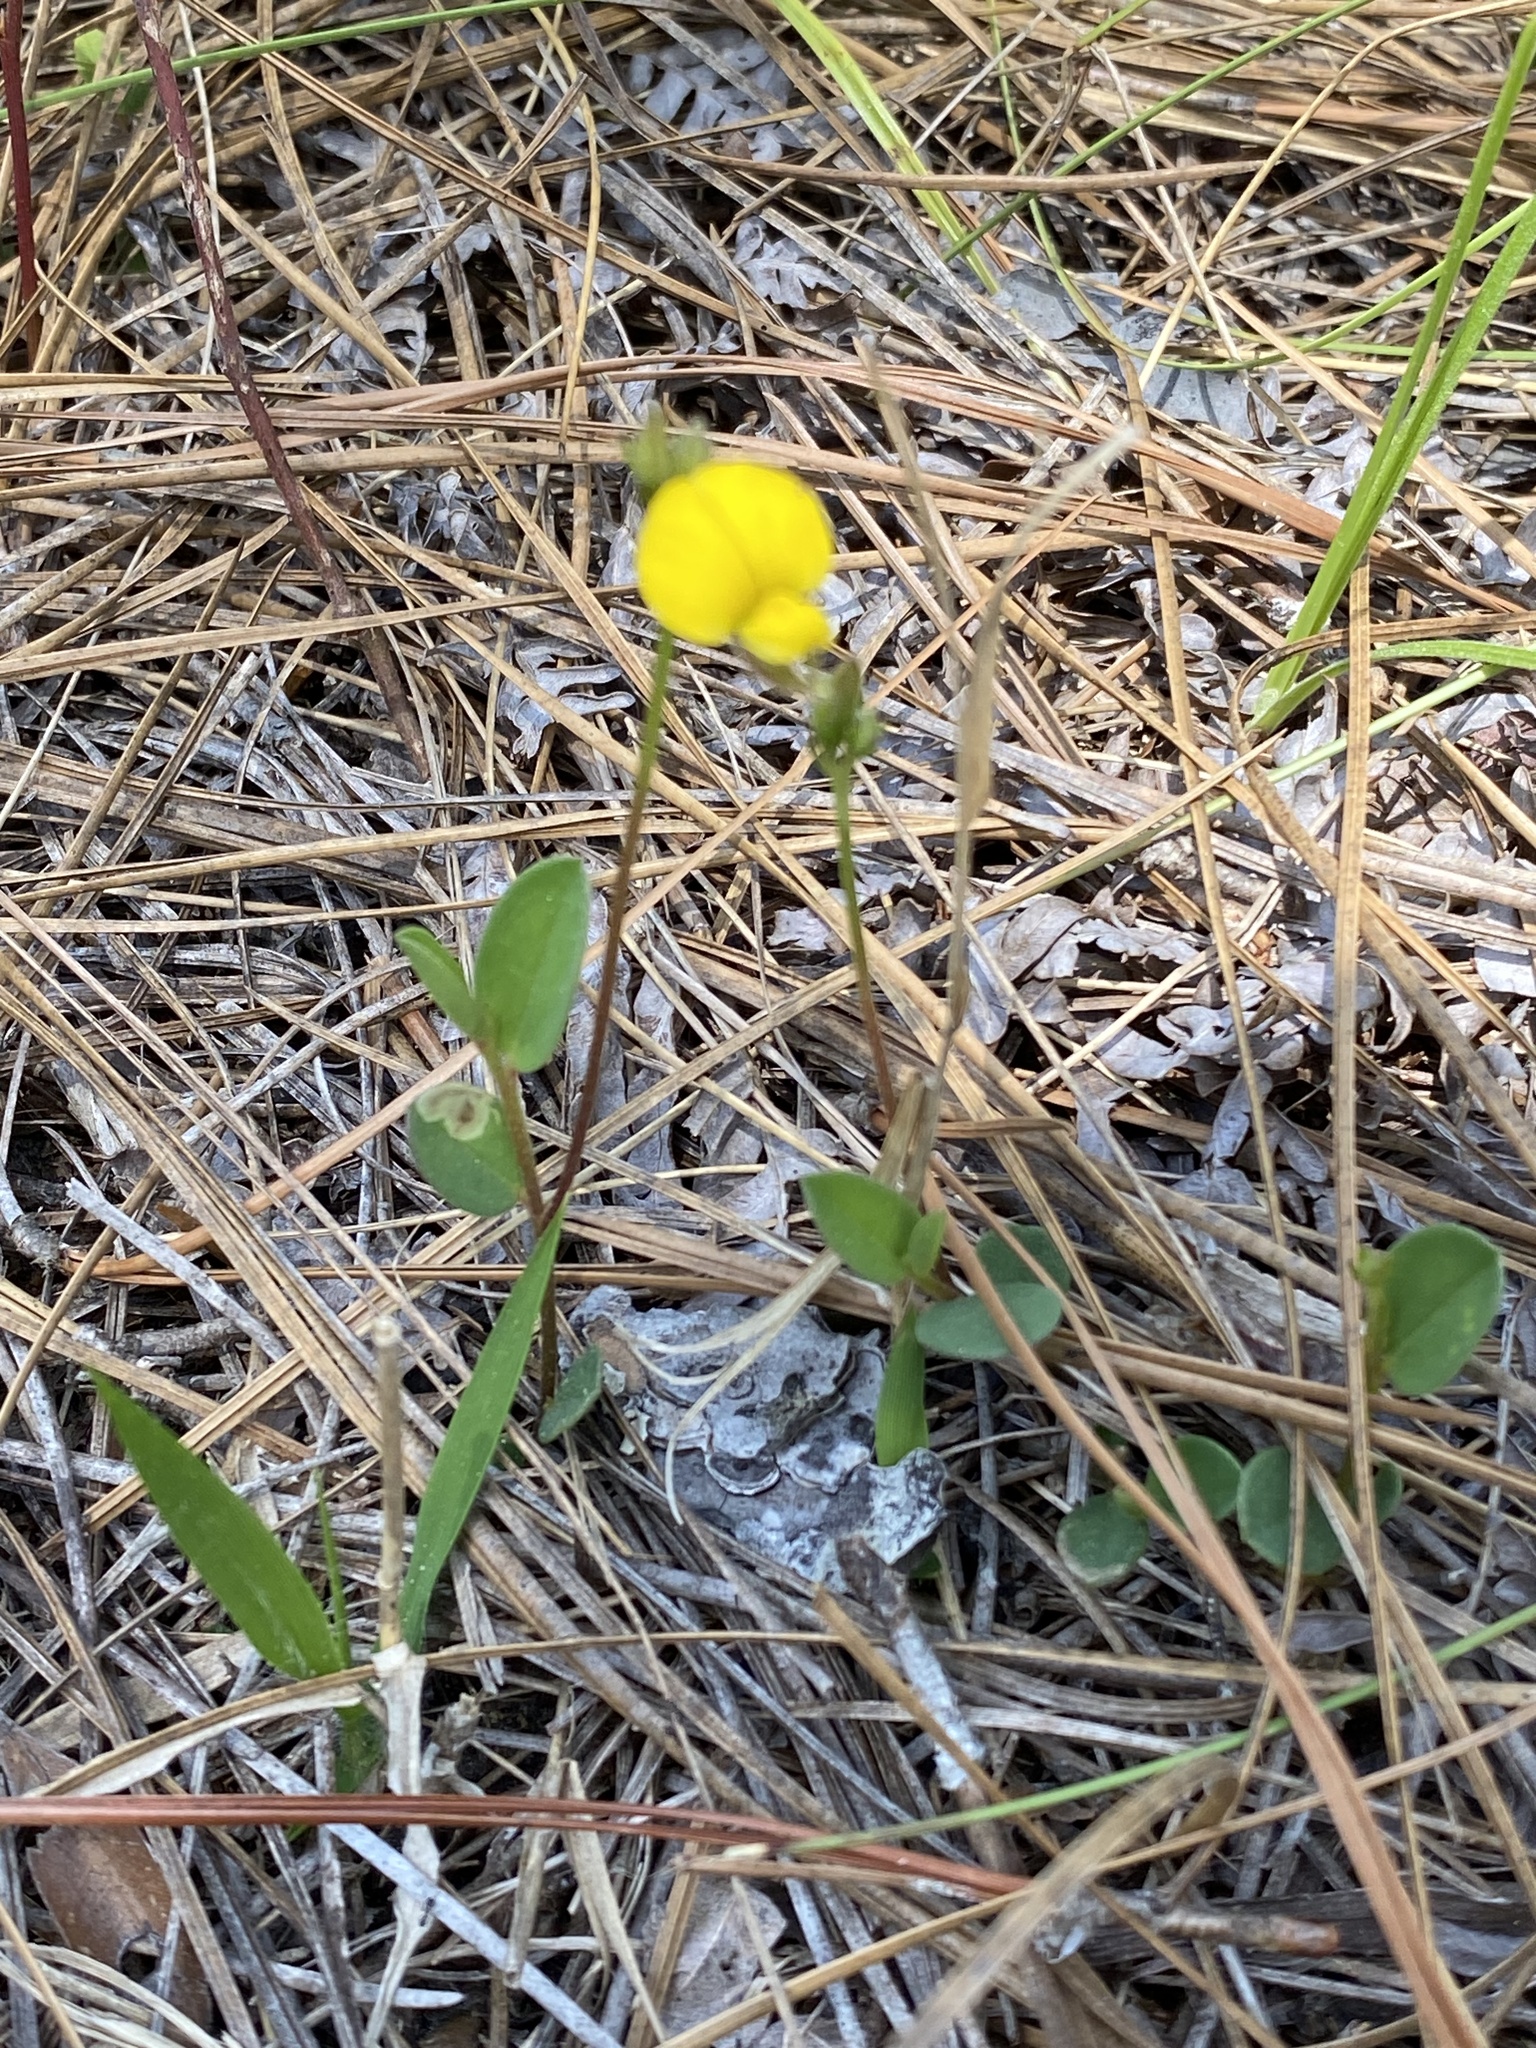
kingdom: Plantae
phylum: Tracheophyta
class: Magnoliopsida
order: Fabales
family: Fabaceae
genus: Crotalaria
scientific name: Crotalaria rotundifolia
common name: Prostrate rattlebox
